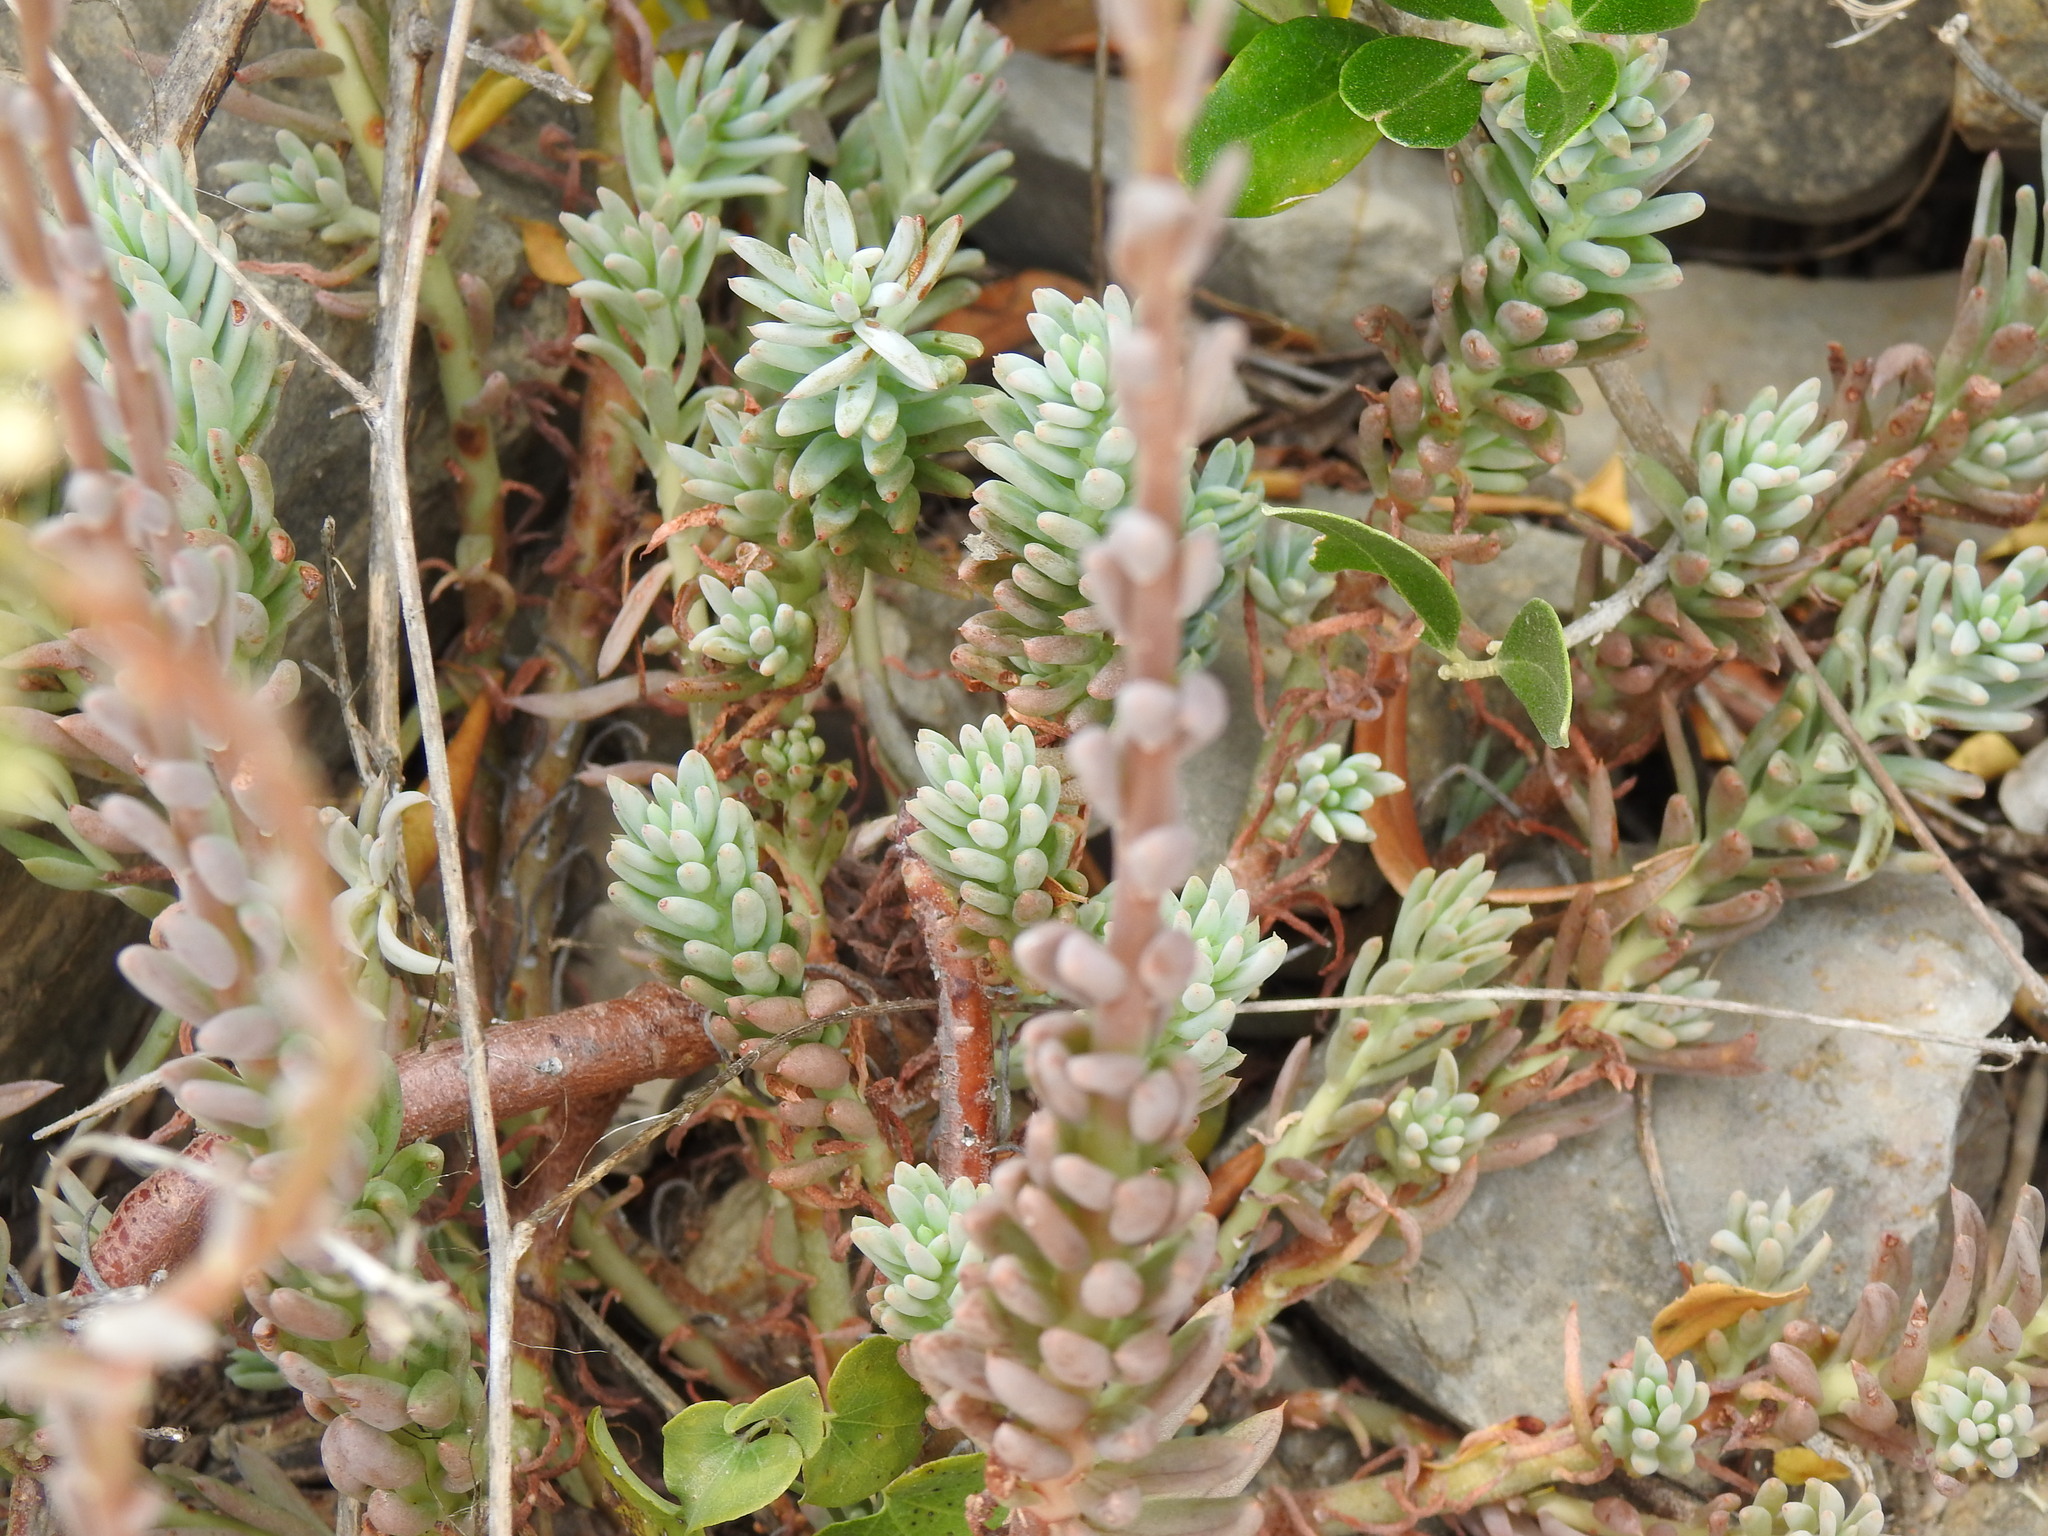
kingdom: Plantae
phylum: Tracheophyta
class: Magnoliopsida
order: Saxifragales
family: Crassulaceae
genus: Petrosedum
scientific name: Petrosedum sediforme
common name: Pale stonecrop
